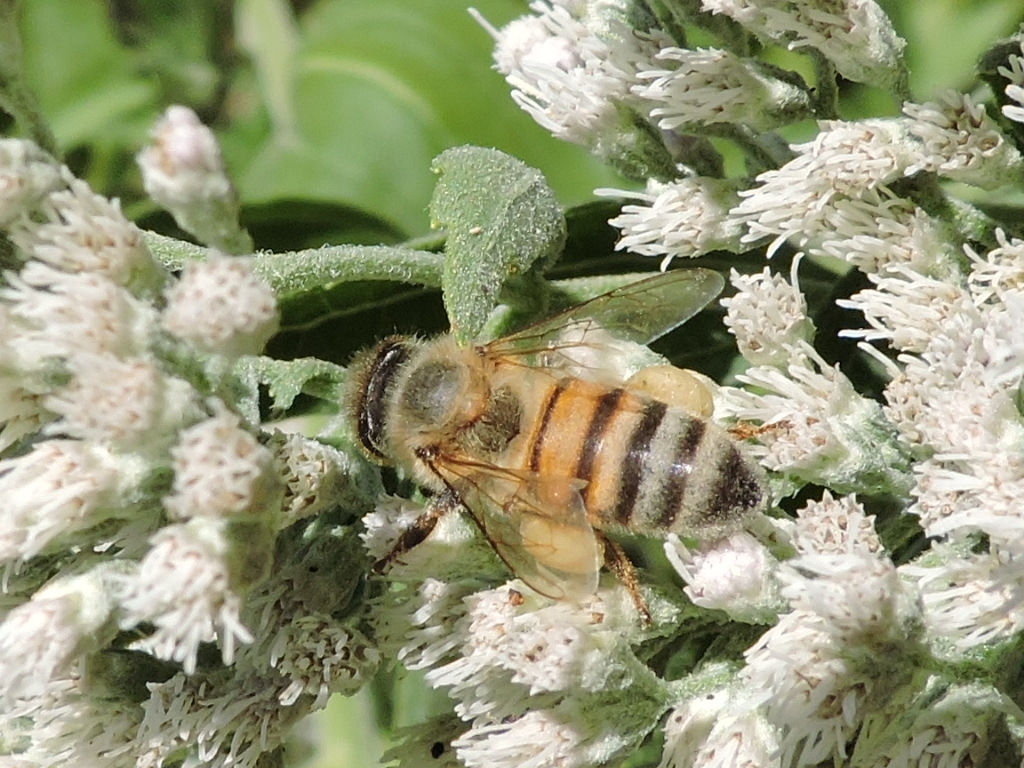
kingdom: Animalia
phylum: Arthropoda
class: Insecta
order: Hymenoptera
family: Apidae
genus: Apis
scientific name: Apis mellifera
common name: Honey bee
